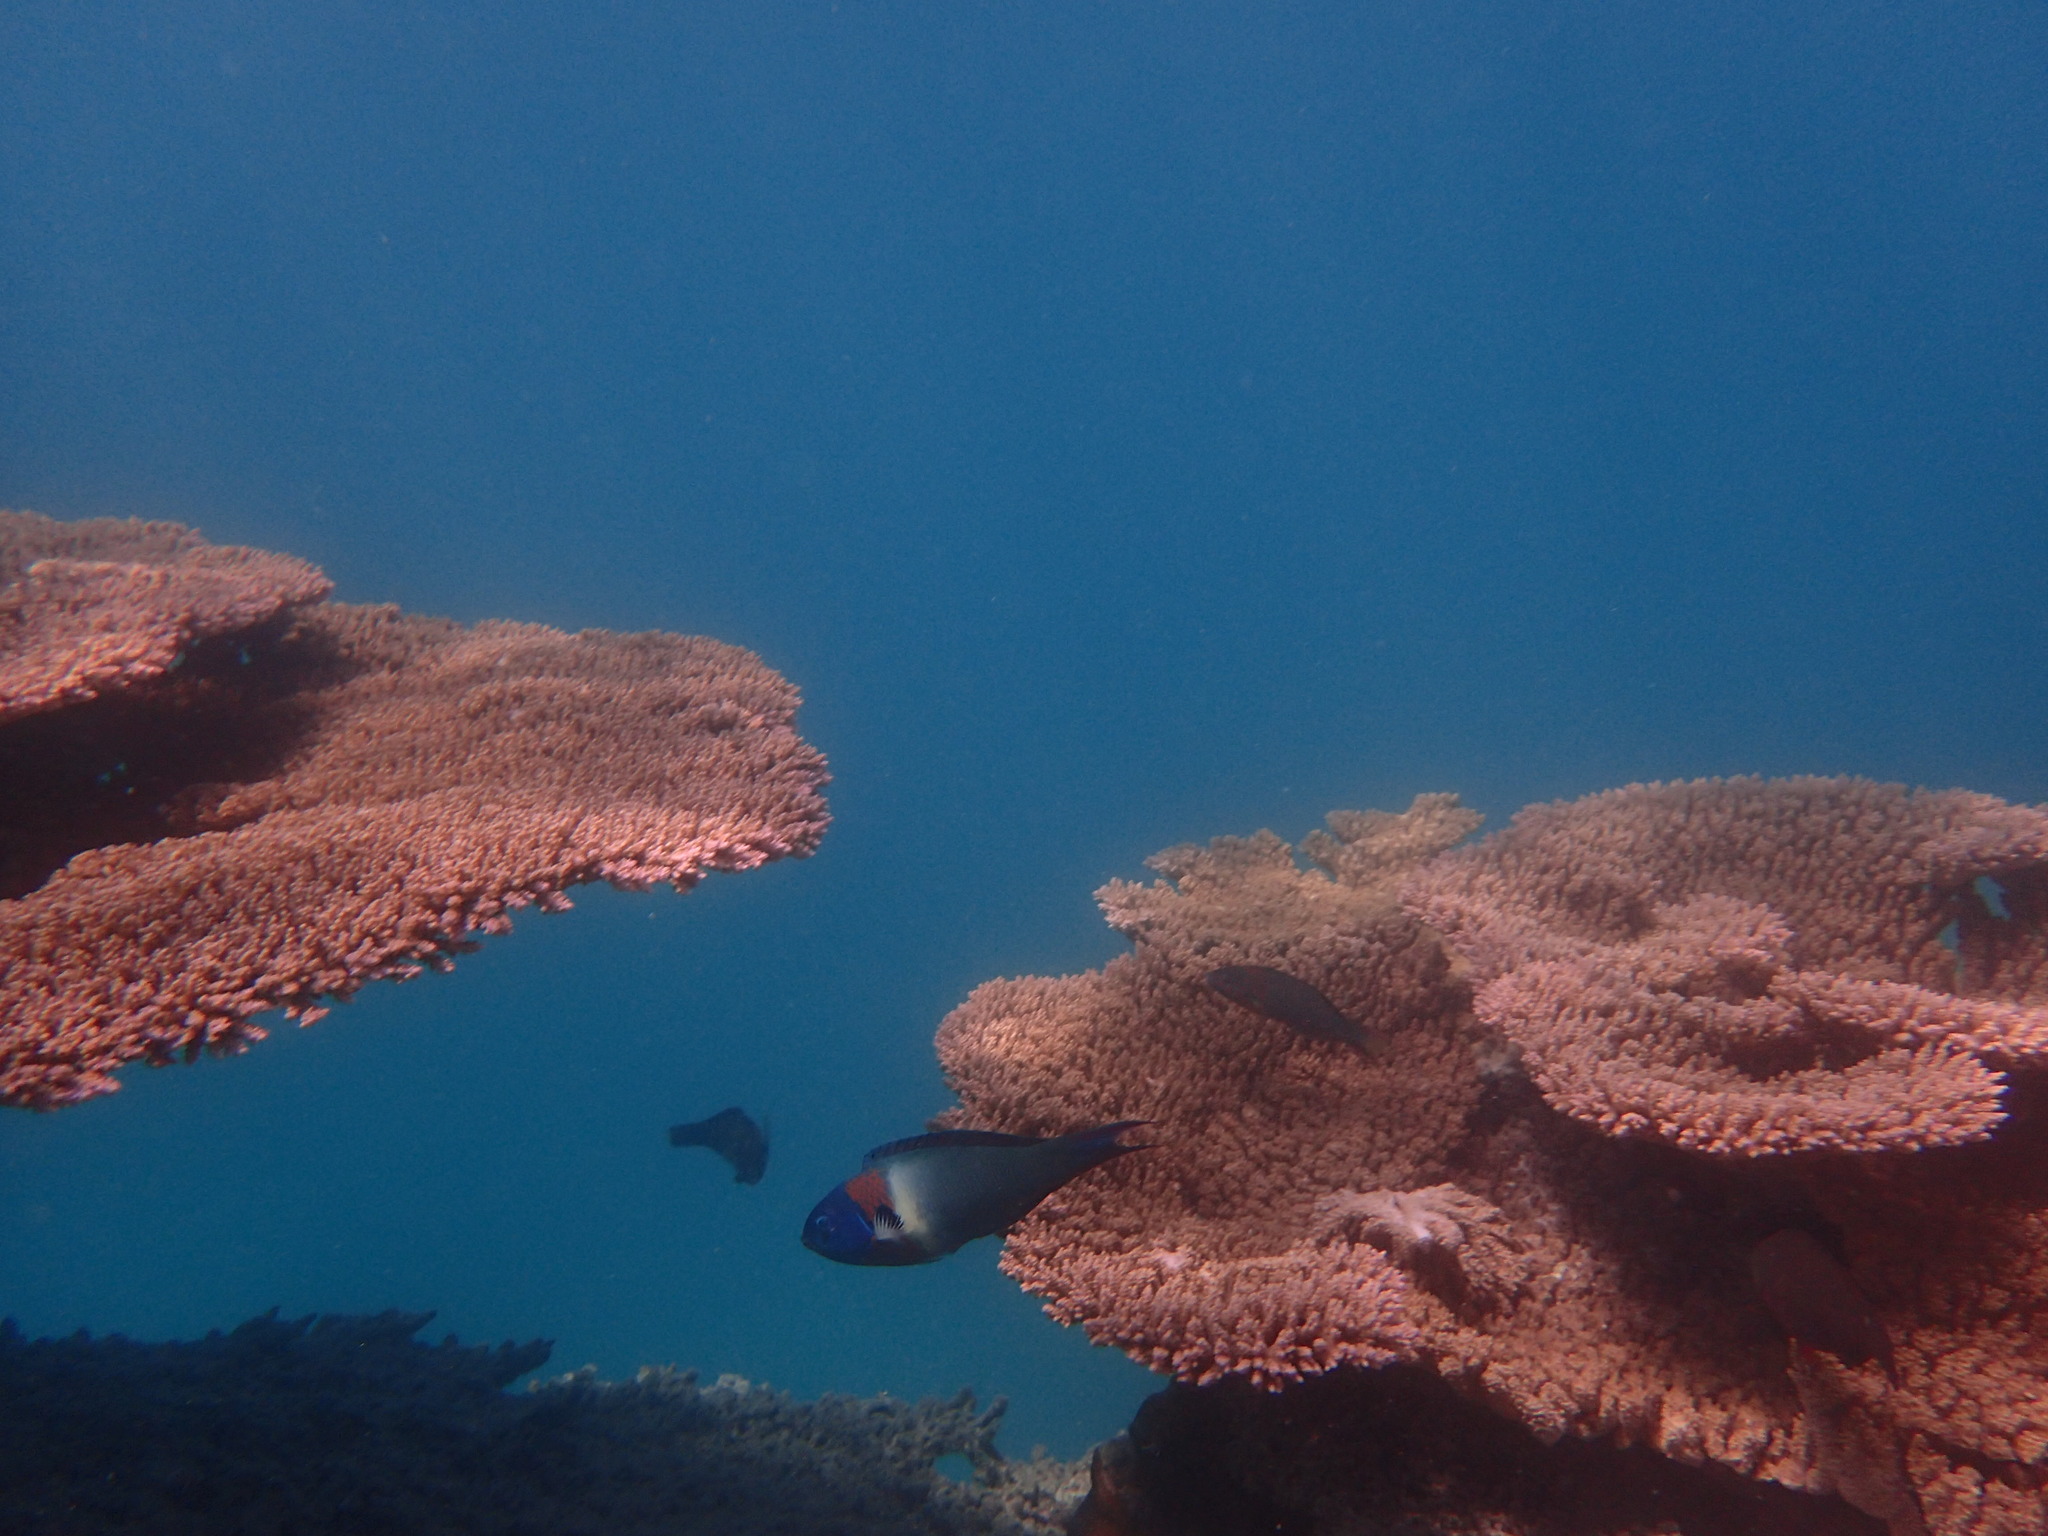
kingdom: Animalia
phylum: Chordata
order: Perciformes
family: Labridae
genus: Thalassoma
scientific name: Thalassoma duperrey
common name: Saddle wrasse
